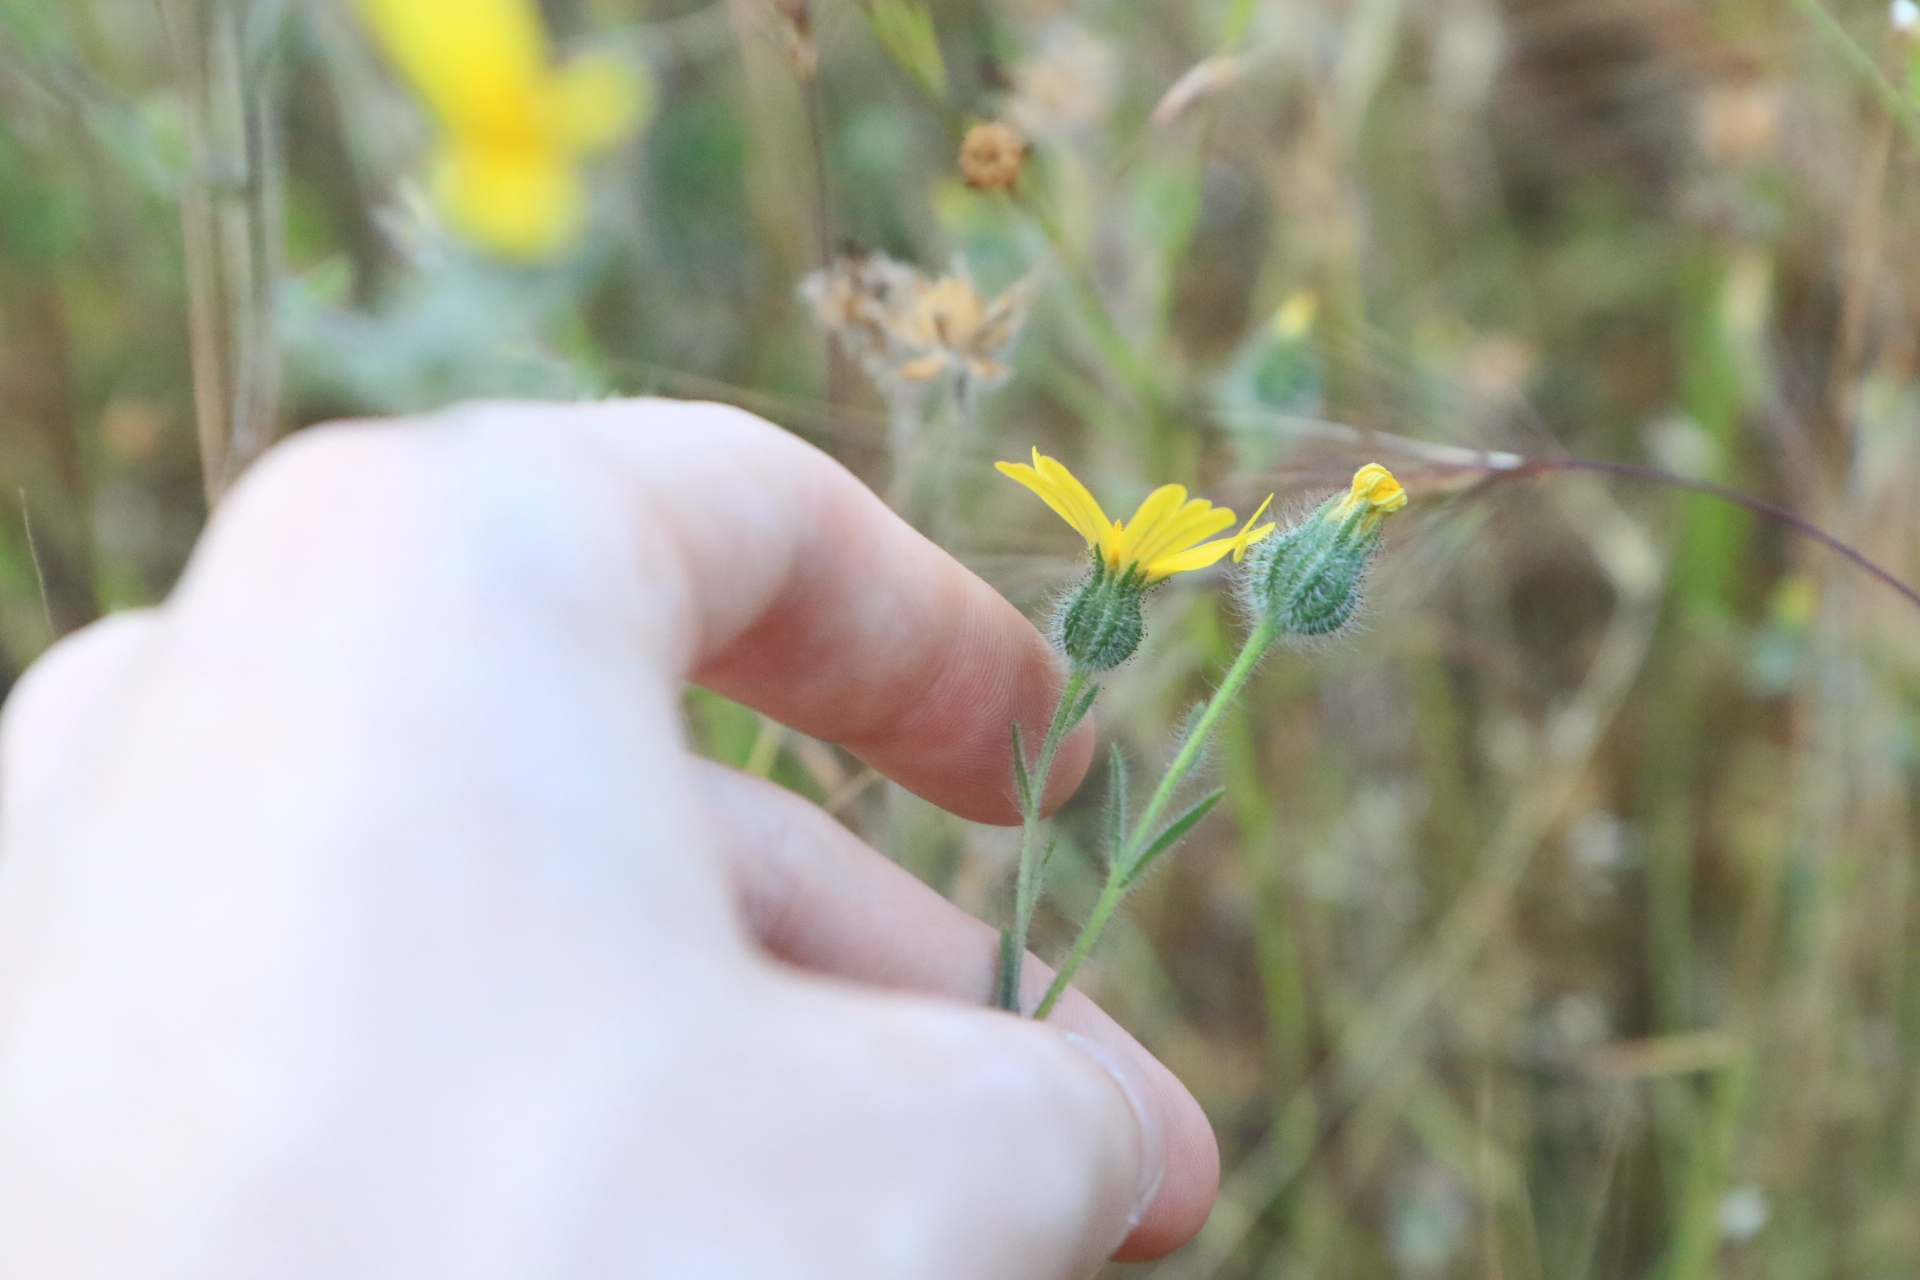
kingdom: Plantae
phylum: Tracheophyta
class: Magnoliopsida
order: Asterales
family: Asteraceae
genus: Madia
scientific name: Madia gracilis
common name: Grassy tarweed
